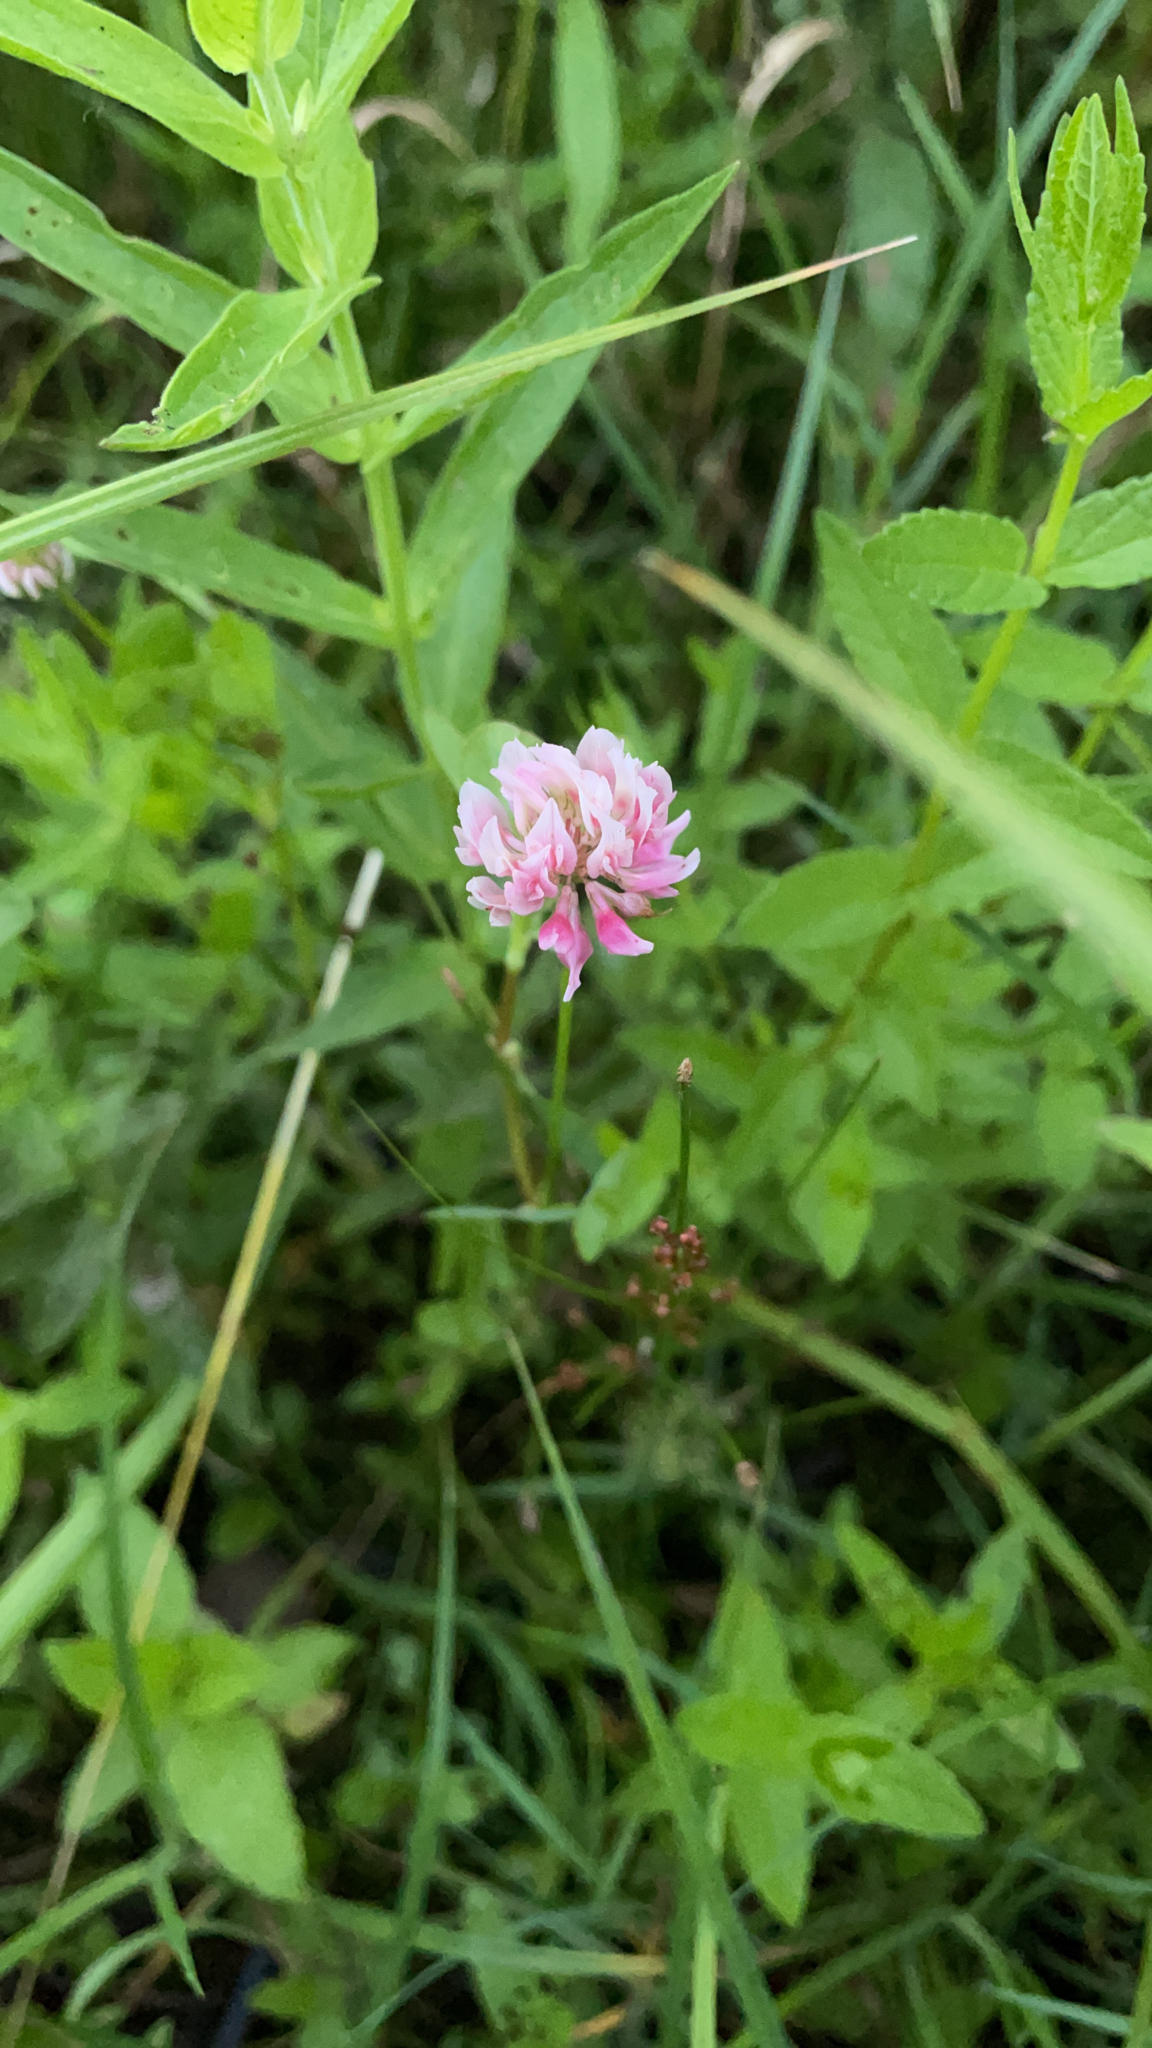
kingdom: Plantae
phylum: Tracheophyta
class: Magnoliopsida
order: Fabales
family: Fabaceae
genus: Trifolium
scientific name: Trifolium hybridum
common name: Alsike clover
